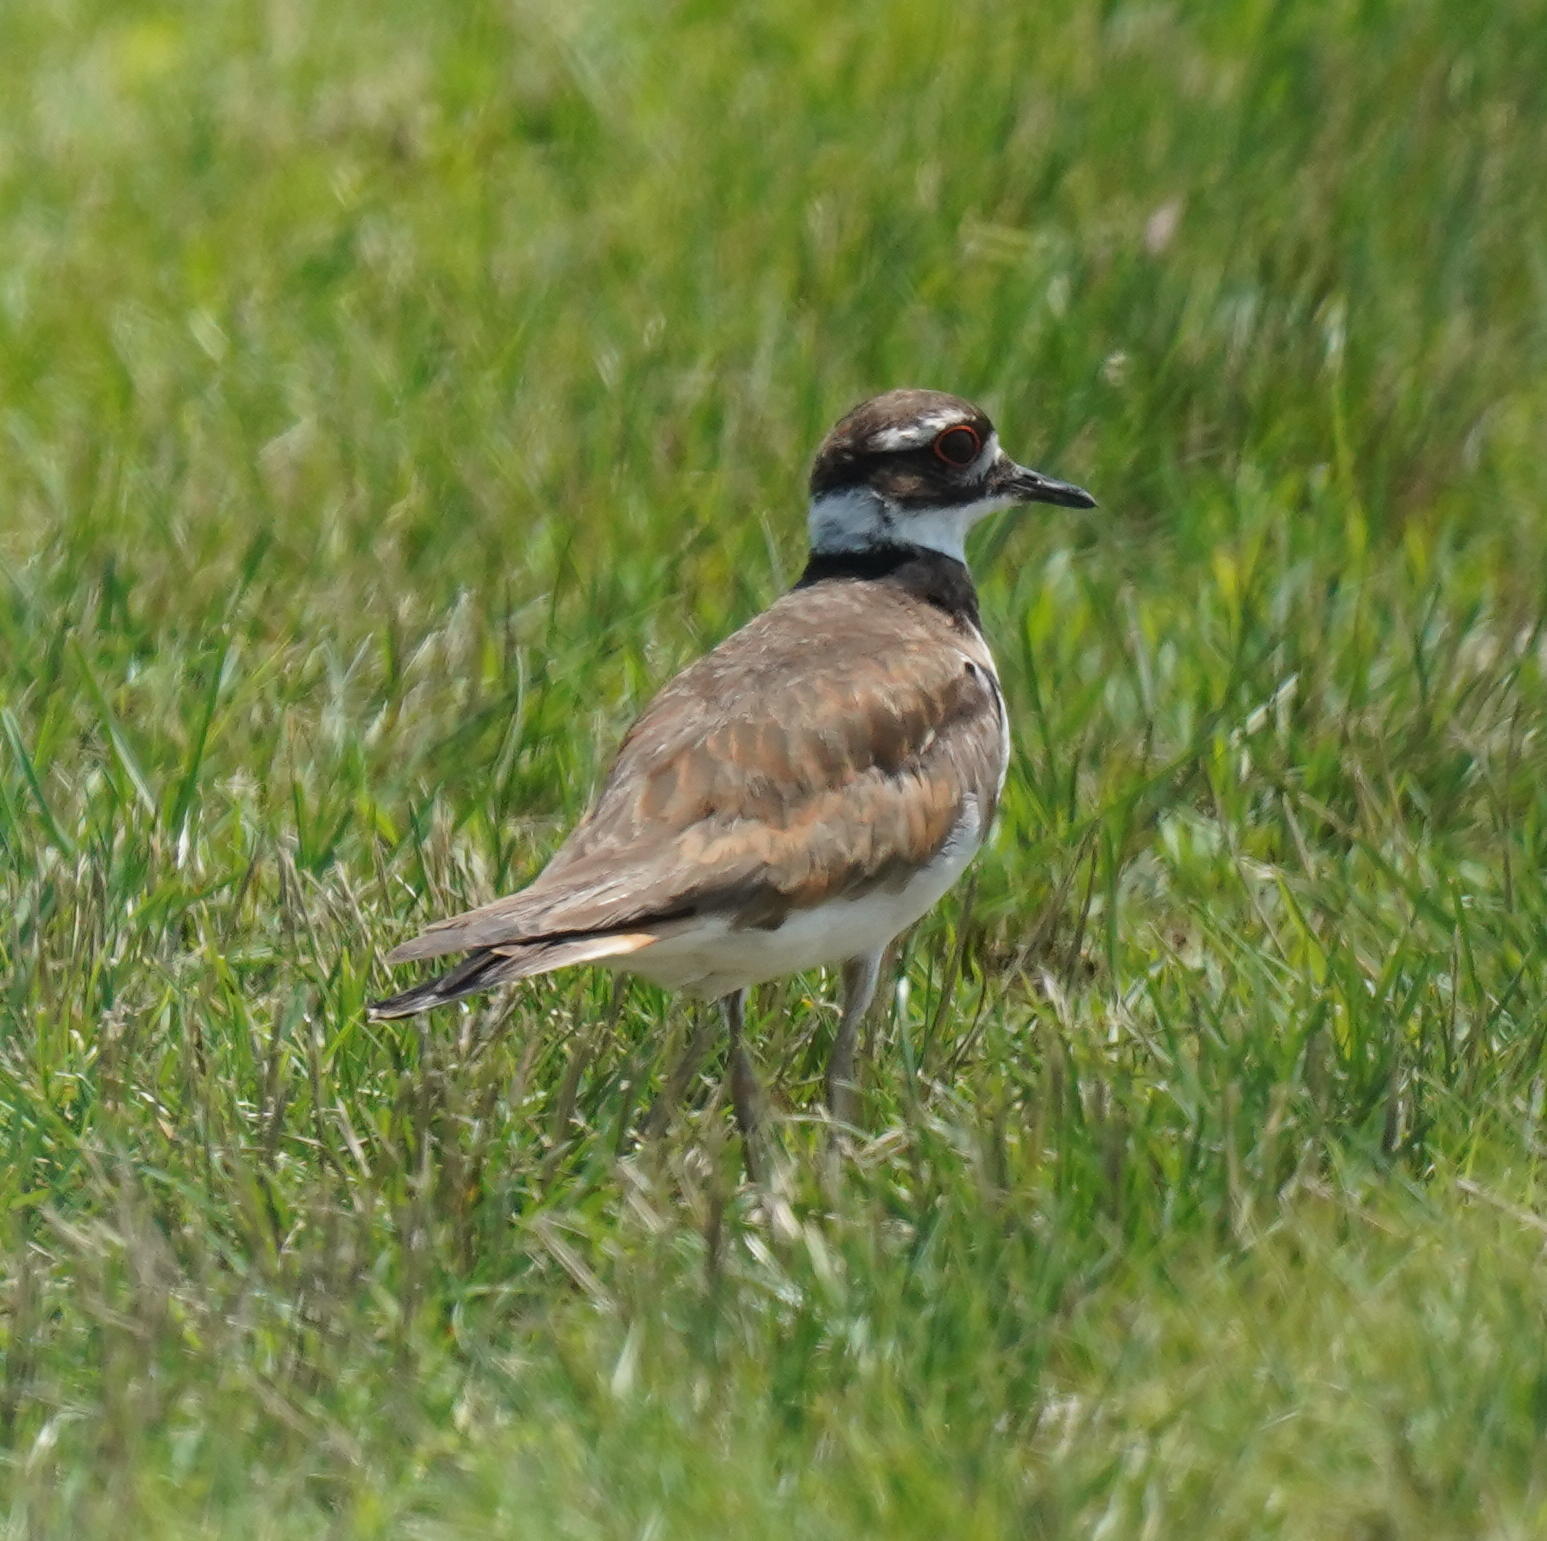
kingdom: Animalia
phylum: Chordata
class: Aves
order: Charadriiformes
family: Charadriidae
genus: Charadrius
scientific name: Charadrius vociferus
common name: Killdeer
